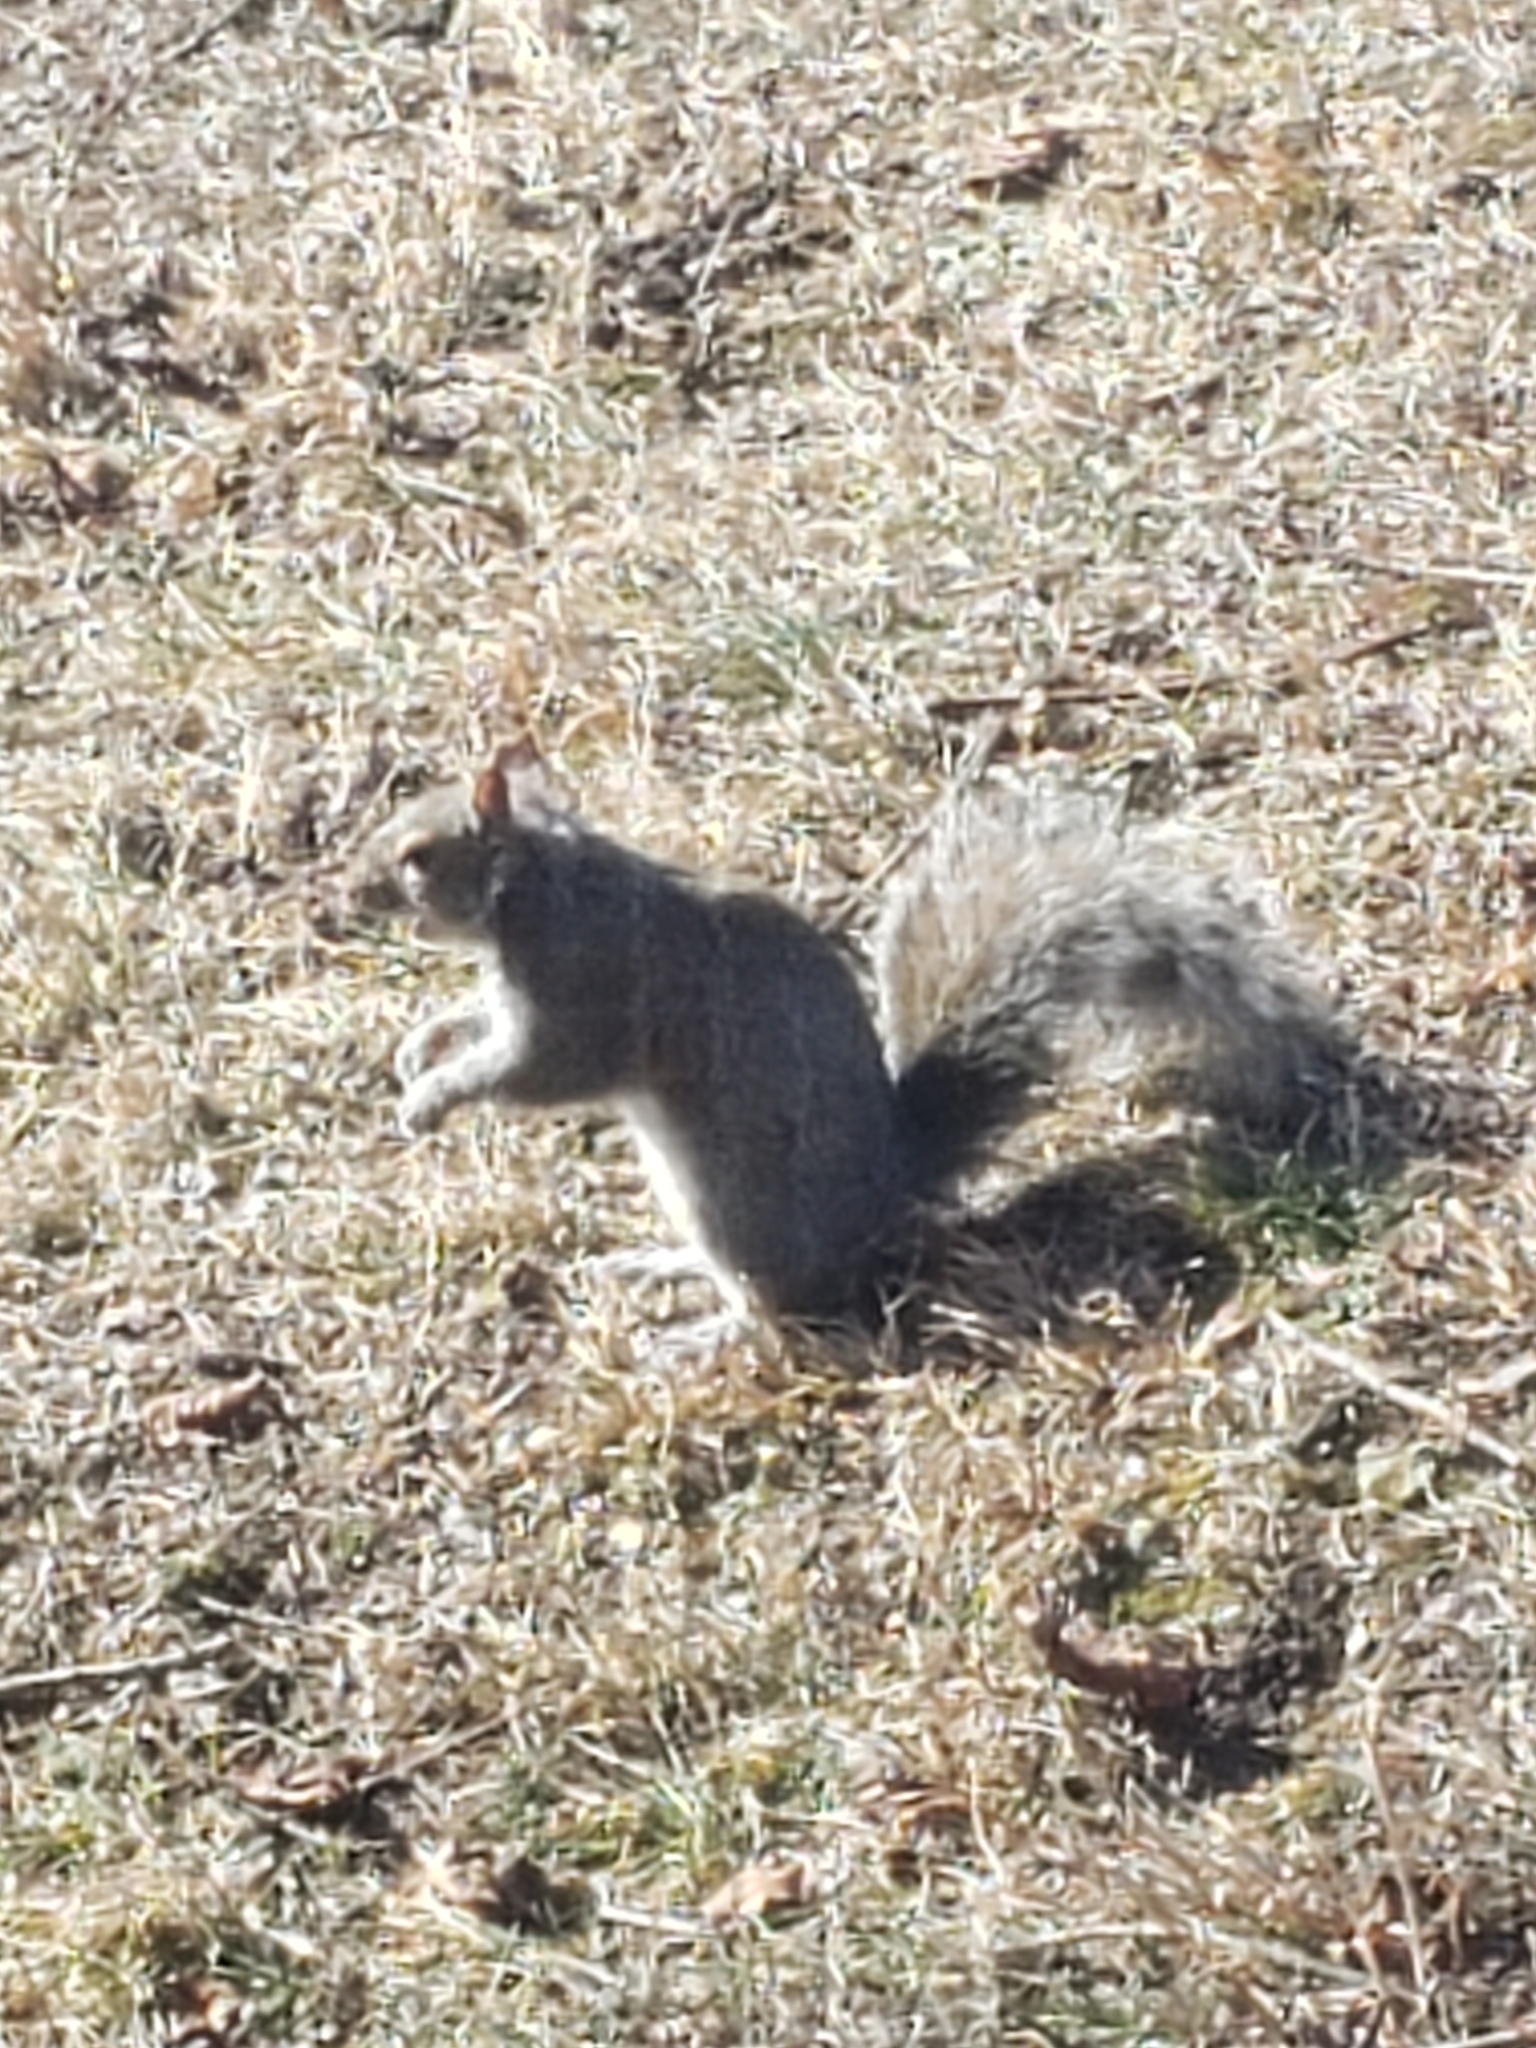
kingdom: Animalia
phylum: Chordata
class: Mammalia
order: Rodentia
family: Sciuridae
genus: Sciurus
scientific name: Sciurus carolinensis
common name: Eastern gray squirrel
